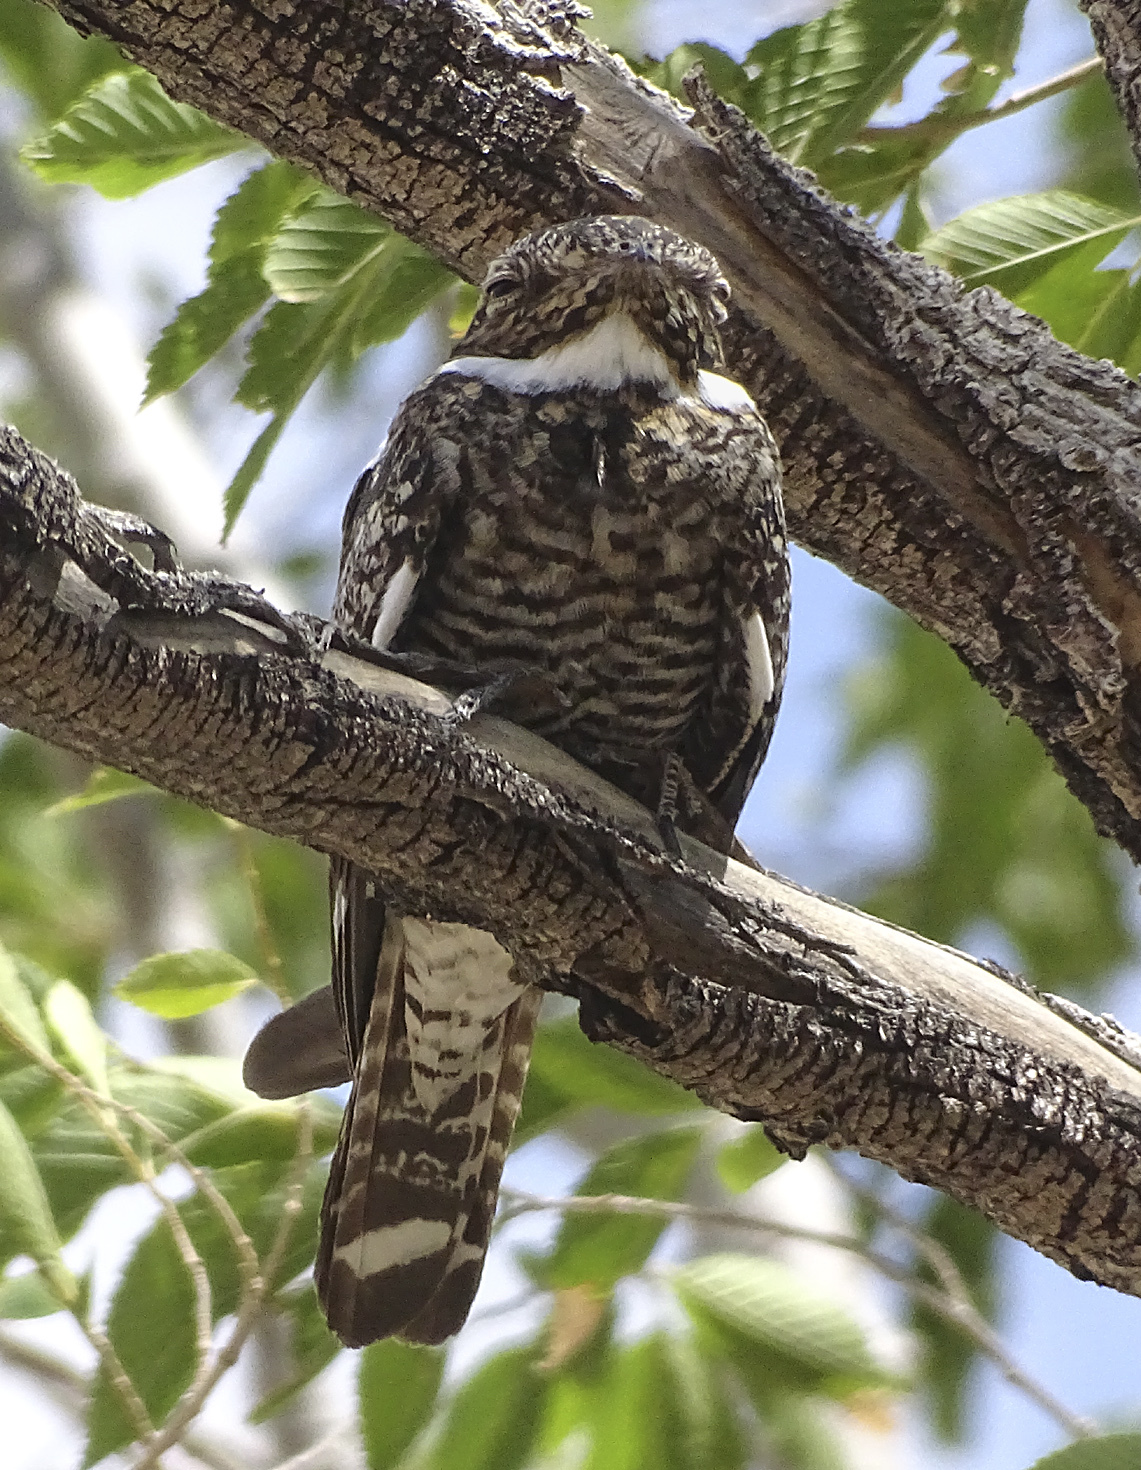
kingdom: Animalia
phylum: Chordata
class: Aves
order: Caprimulgiformes
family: Caprimulgidae
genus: Chordeiles
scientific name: Chordeiles minor
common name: Common nighthawk
